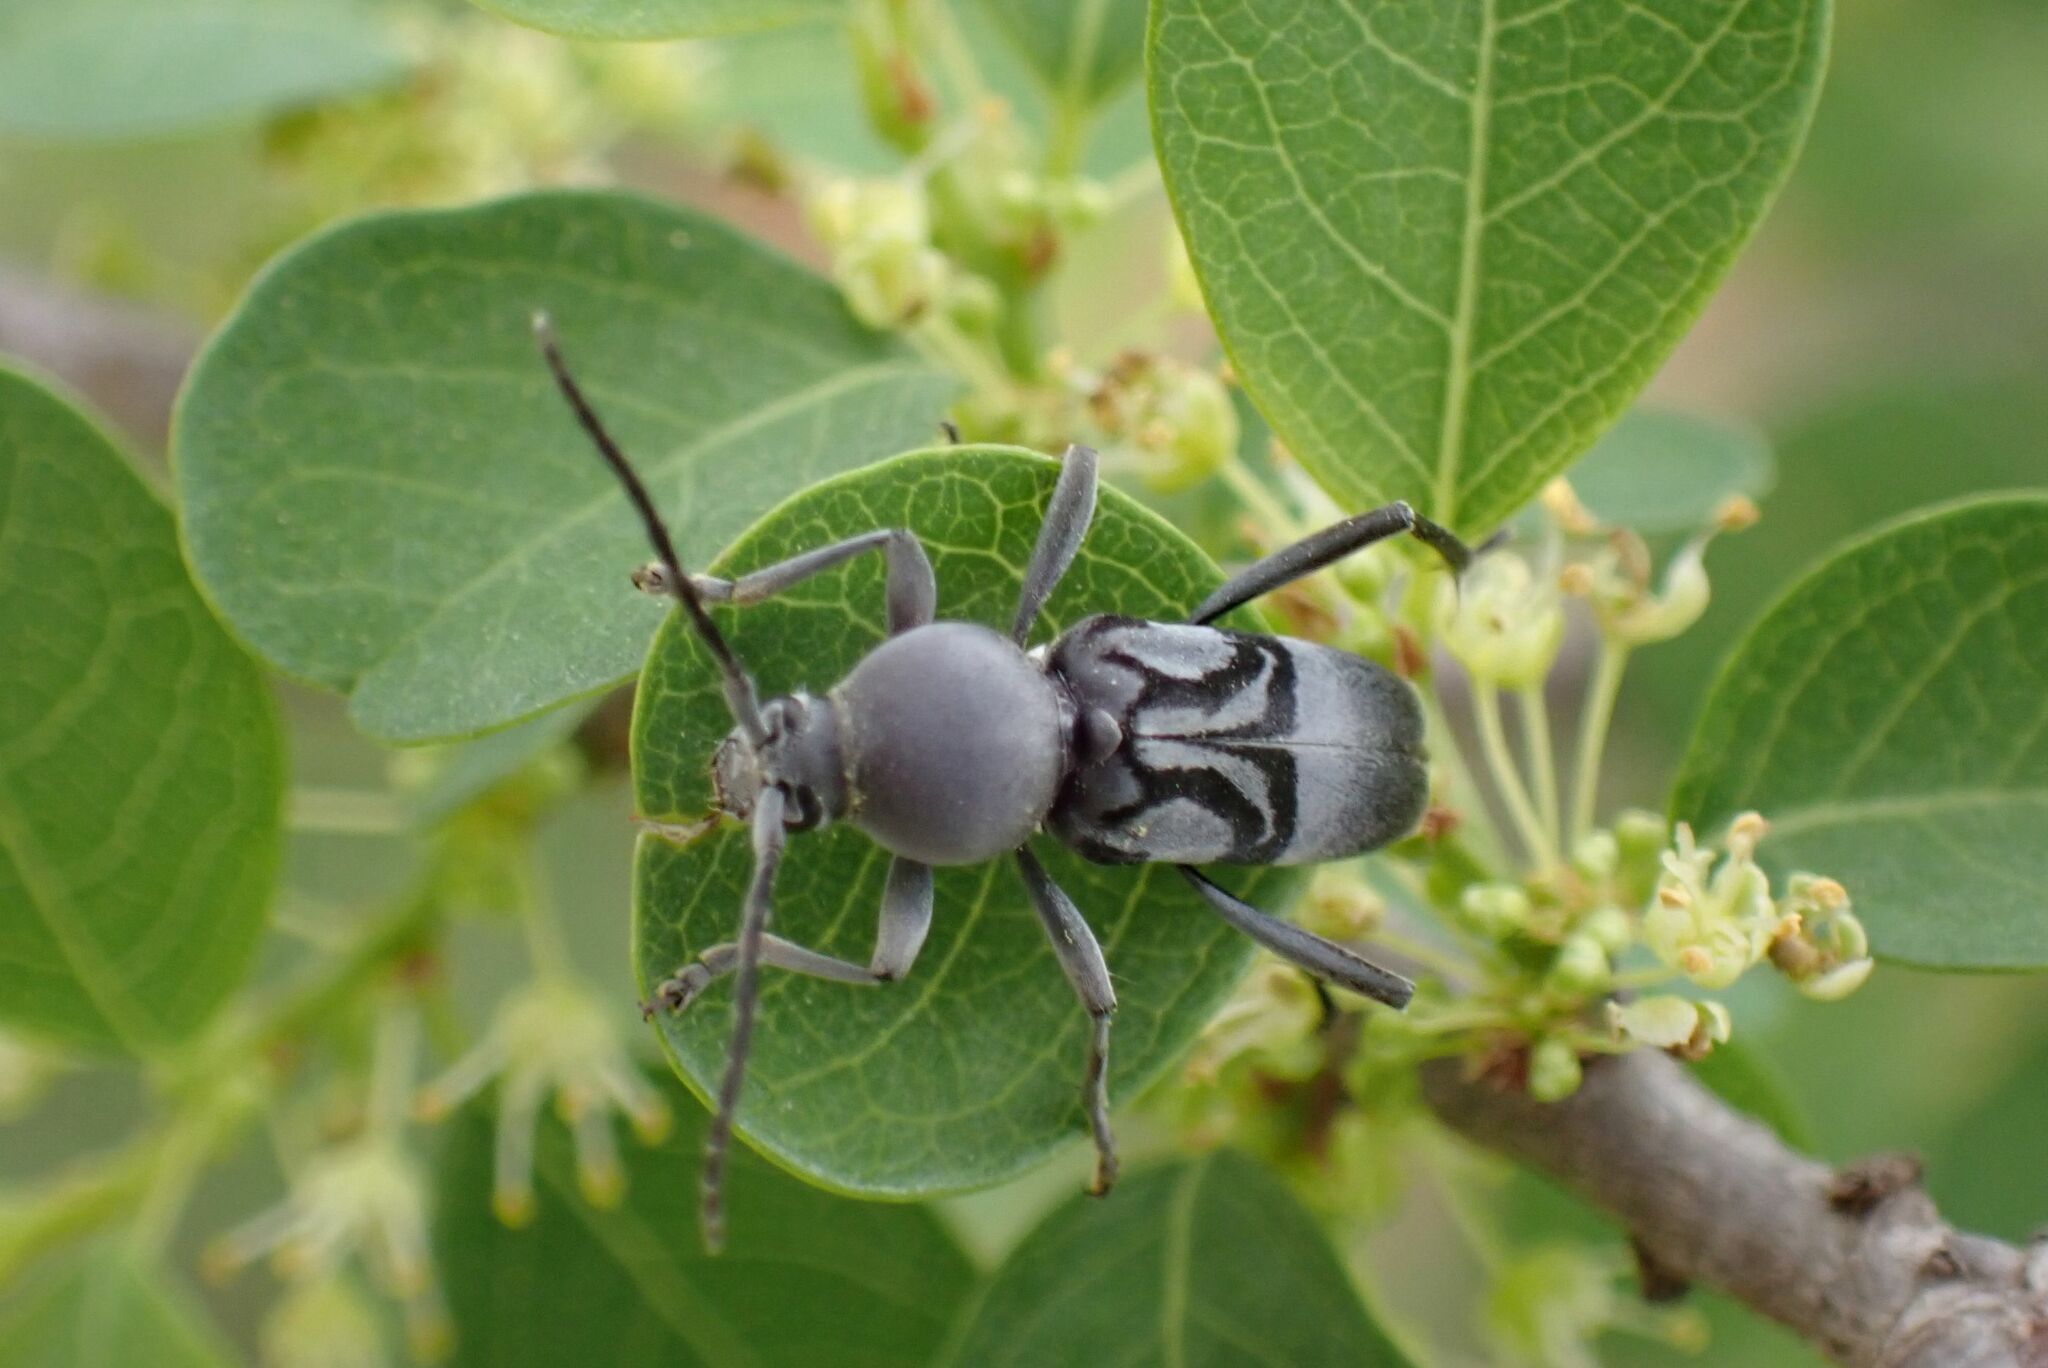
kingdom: Animalia
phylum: Arthropoda
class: Insecta
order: Coleoptera
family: Cerambycidae
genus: Plagionotulus
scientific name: Plagionotulus westringii
